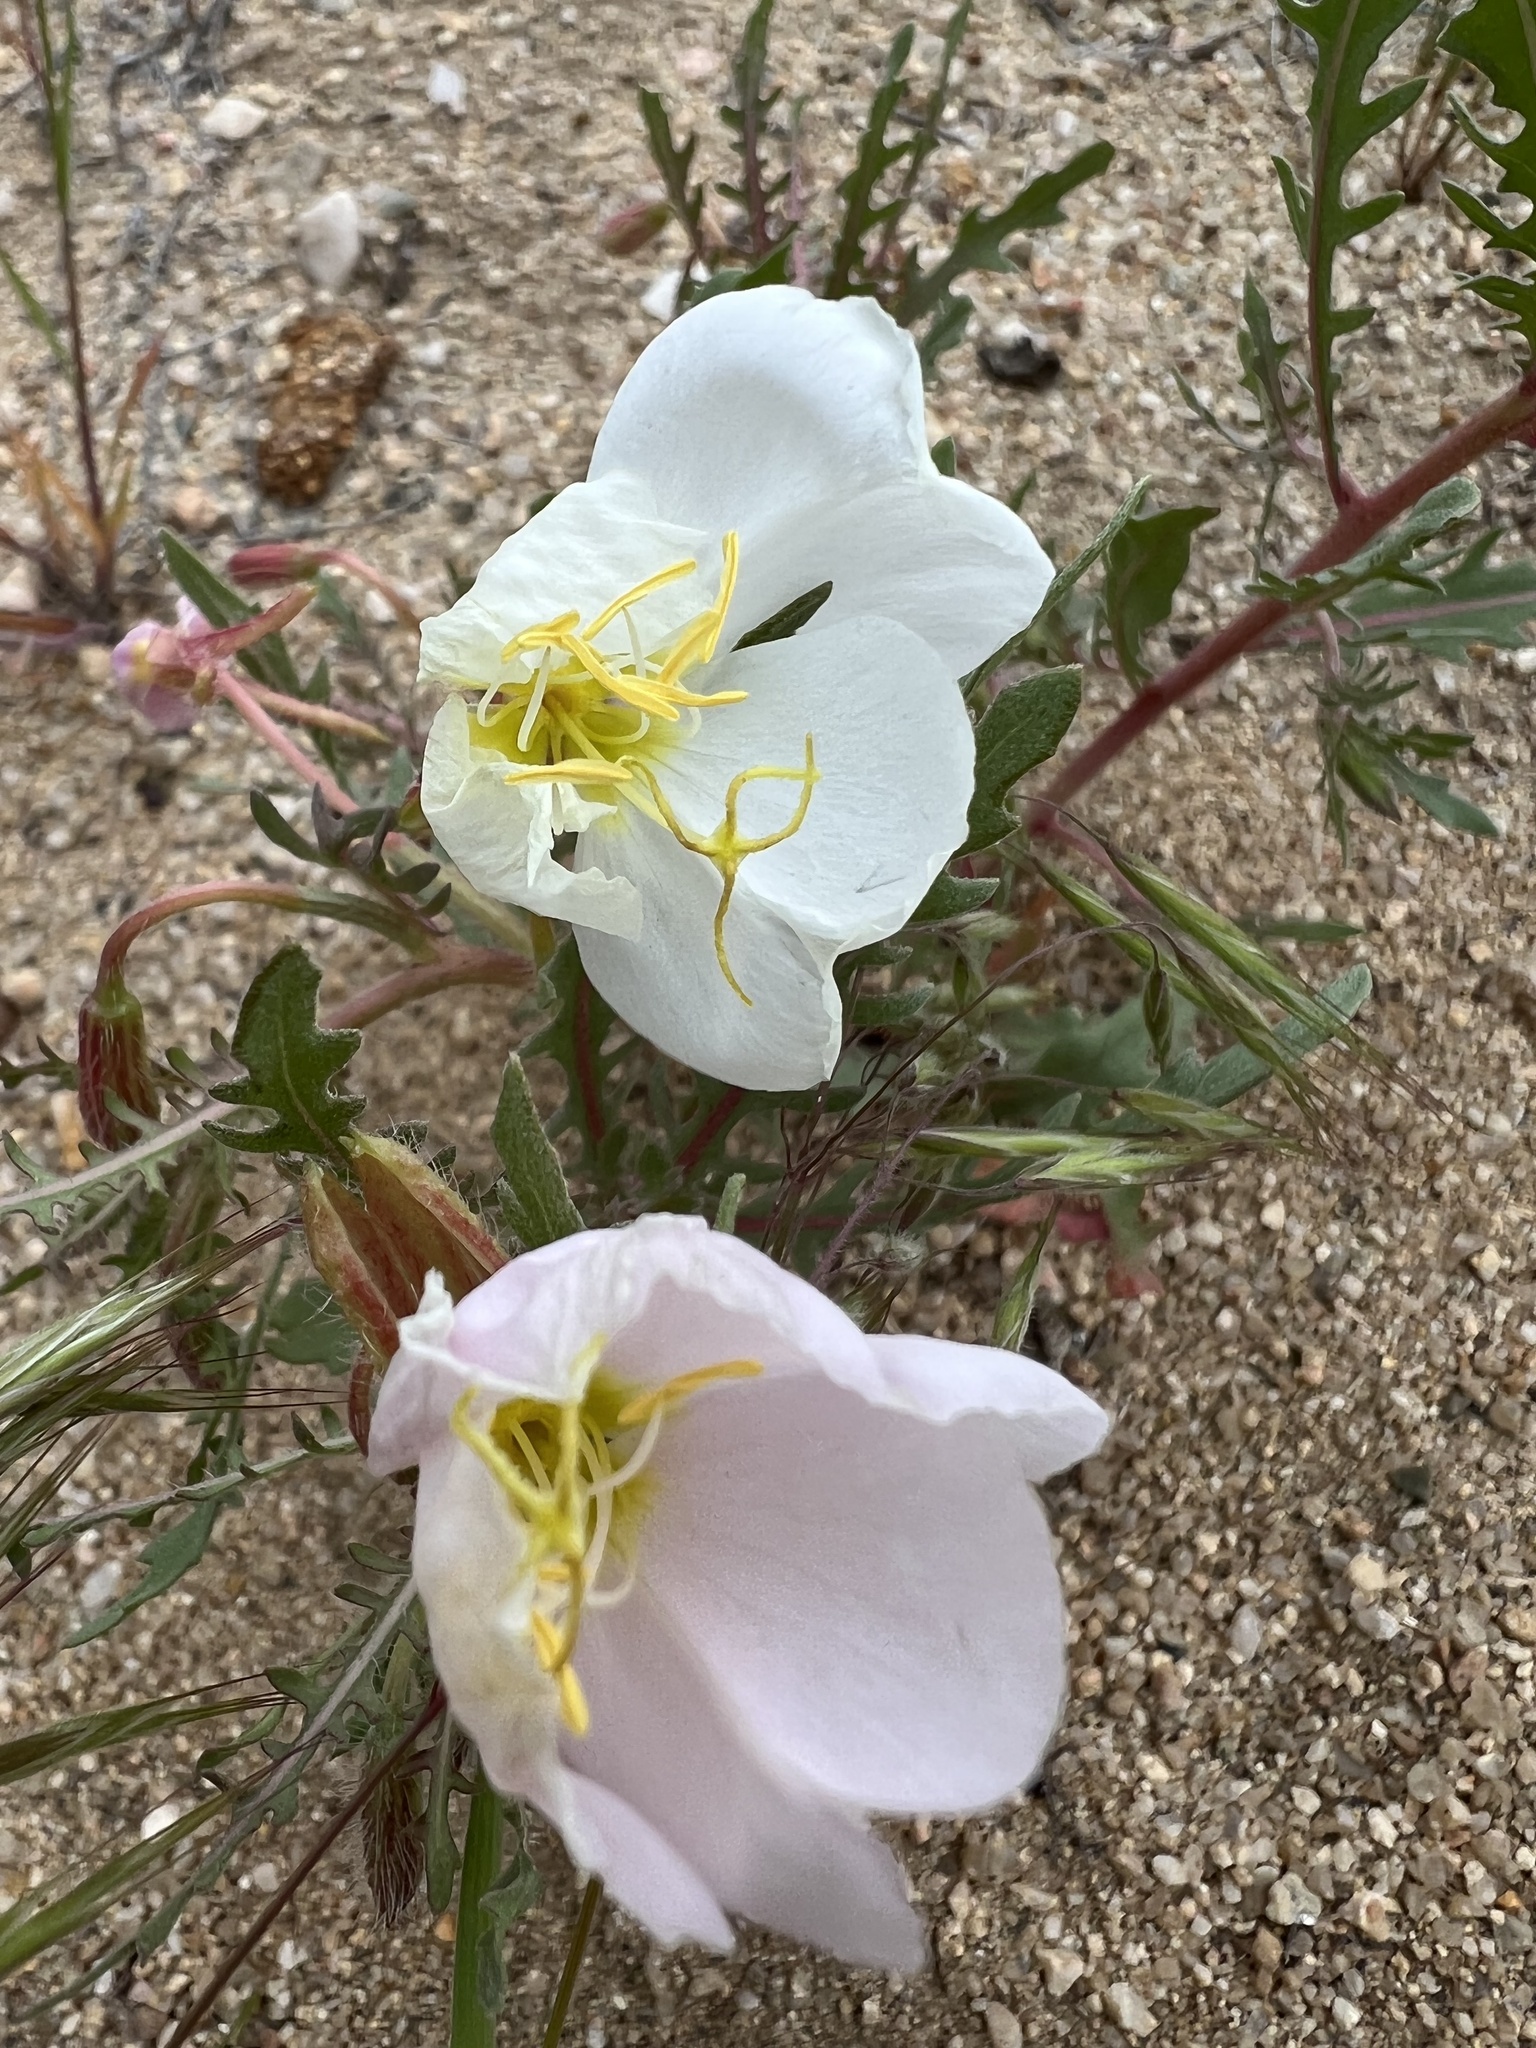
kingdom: Plantae
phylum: Tracheophyta
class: Magnoliopsida
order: Myrtales
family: Onagraceae
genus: Oenothera
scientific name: Oenothera pallida
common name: Pale evening-primrose
